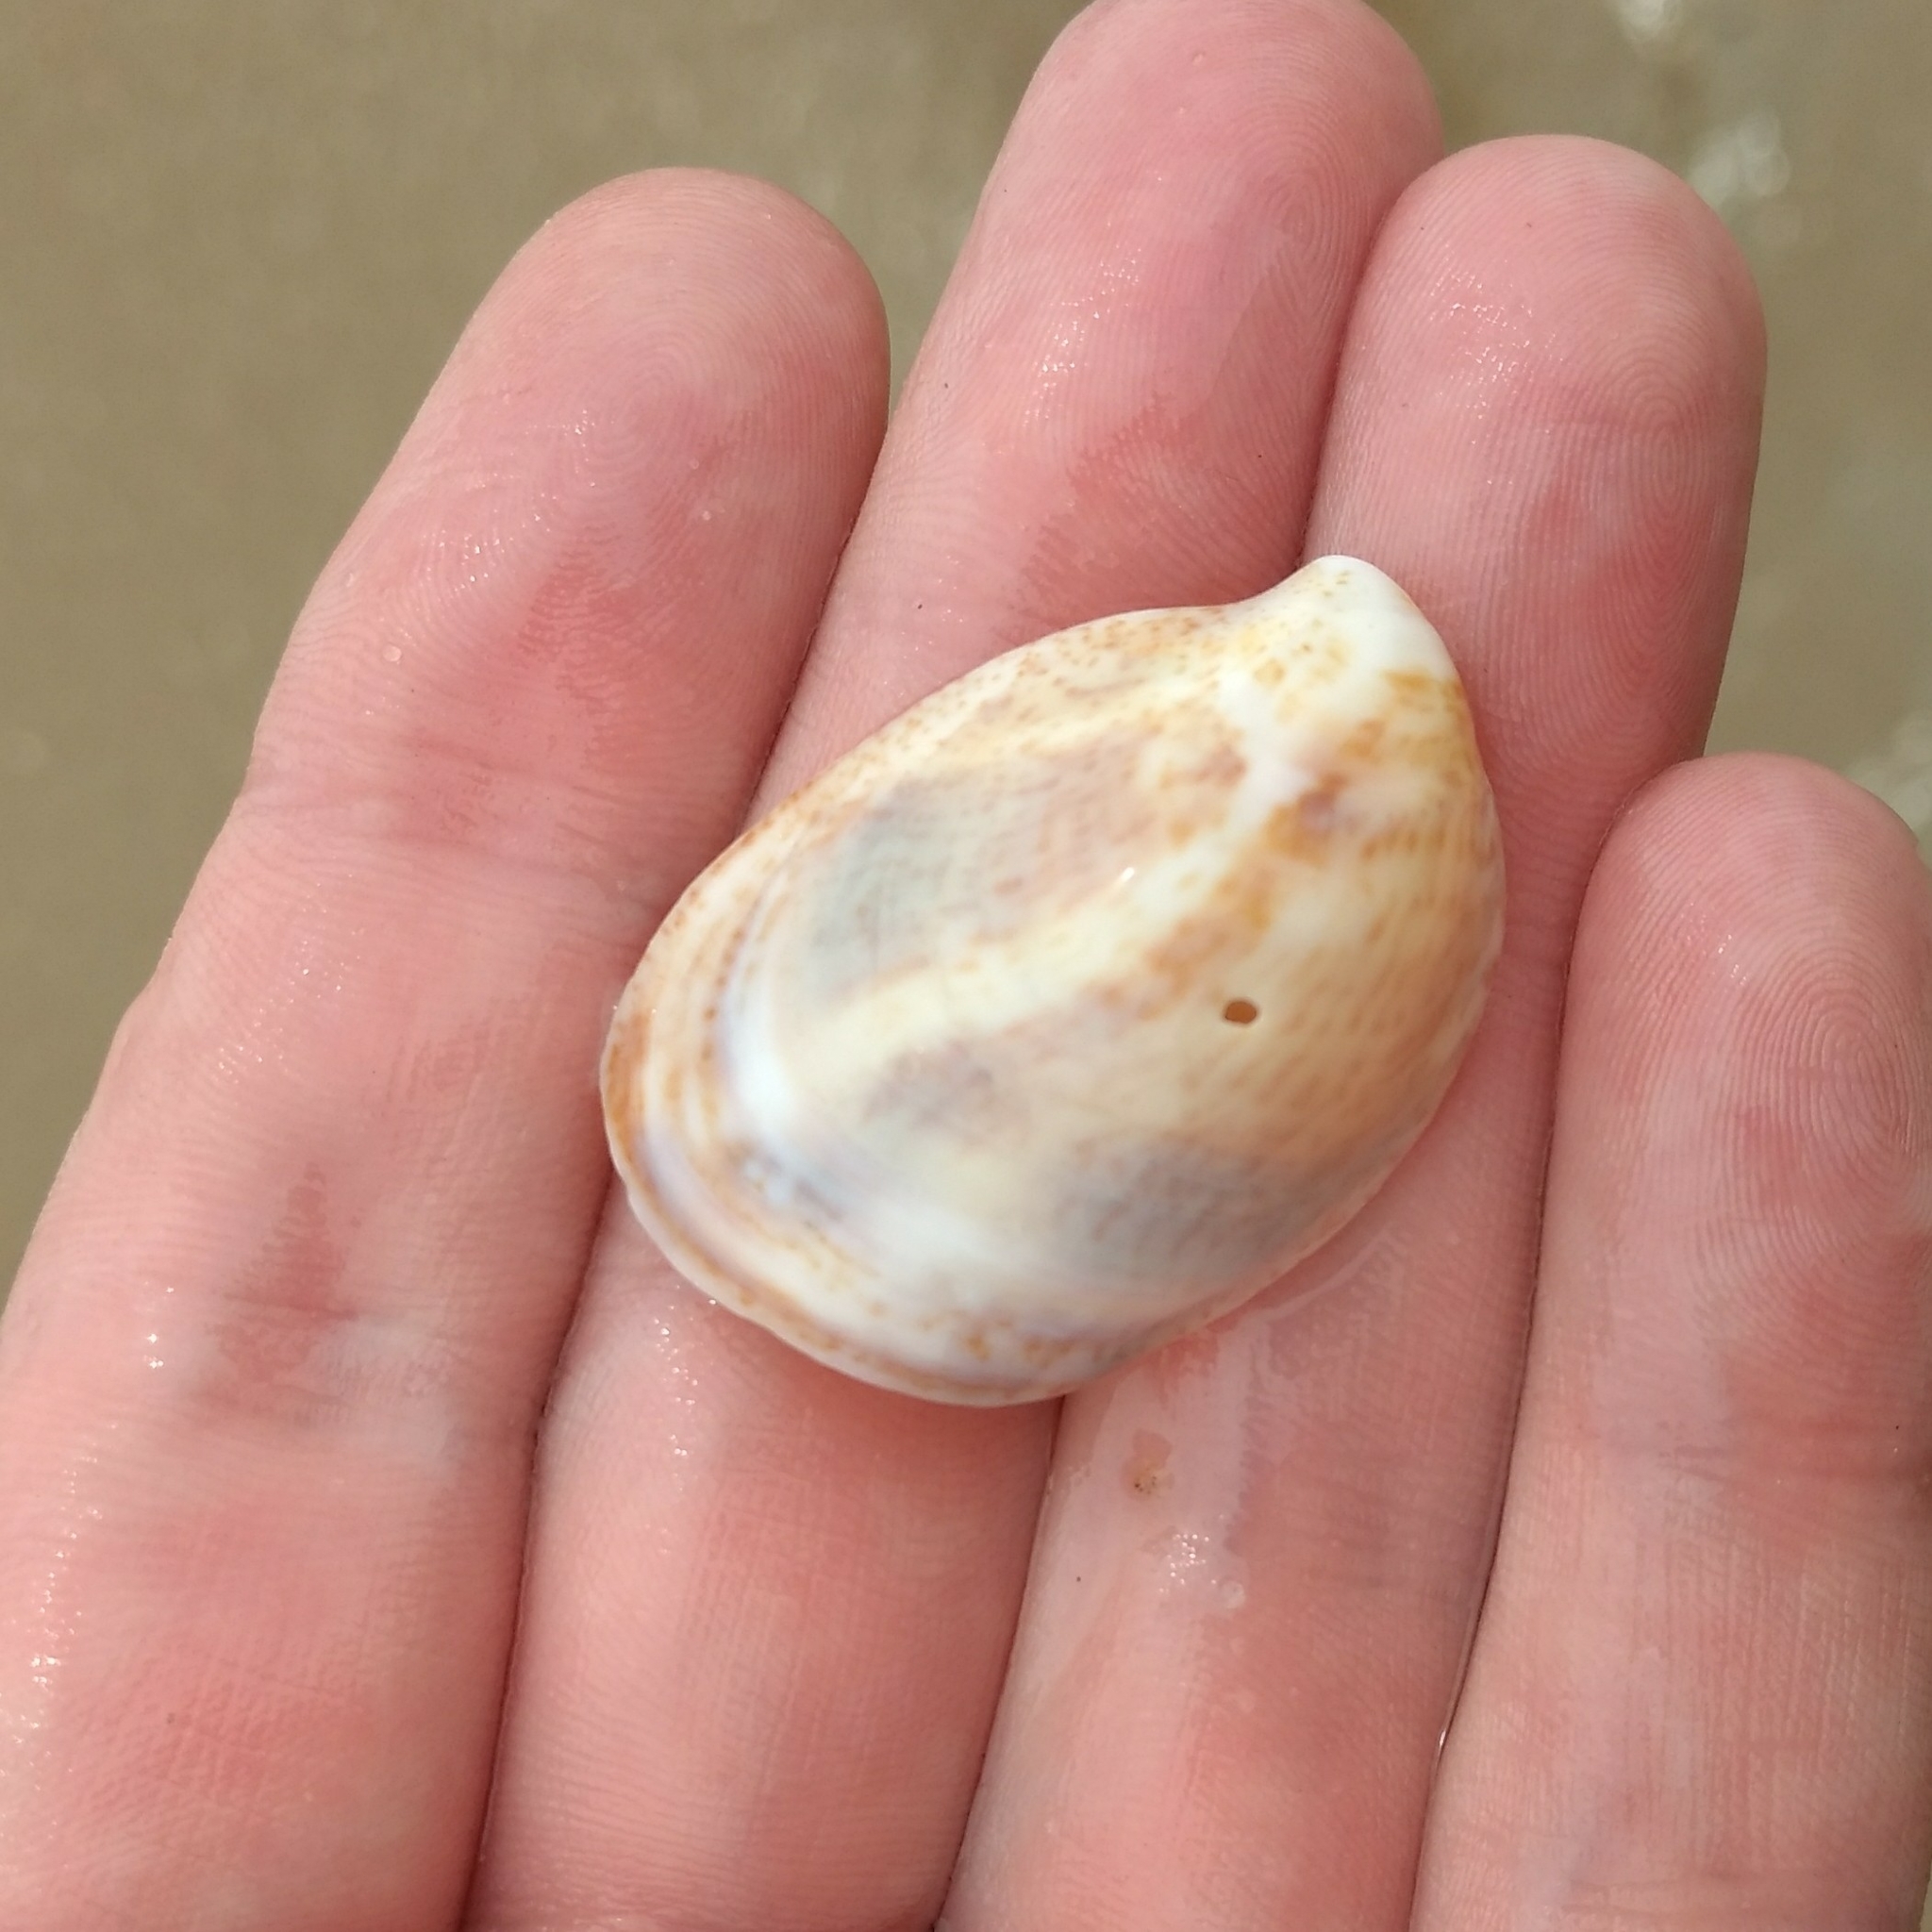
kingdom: Animalia
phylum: Mollusca
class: Gastropoda
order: Littorinimorpha
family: Calyptraeidae
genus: Crepidula
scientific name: Crepidula fornicata
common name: Slipper limpet
